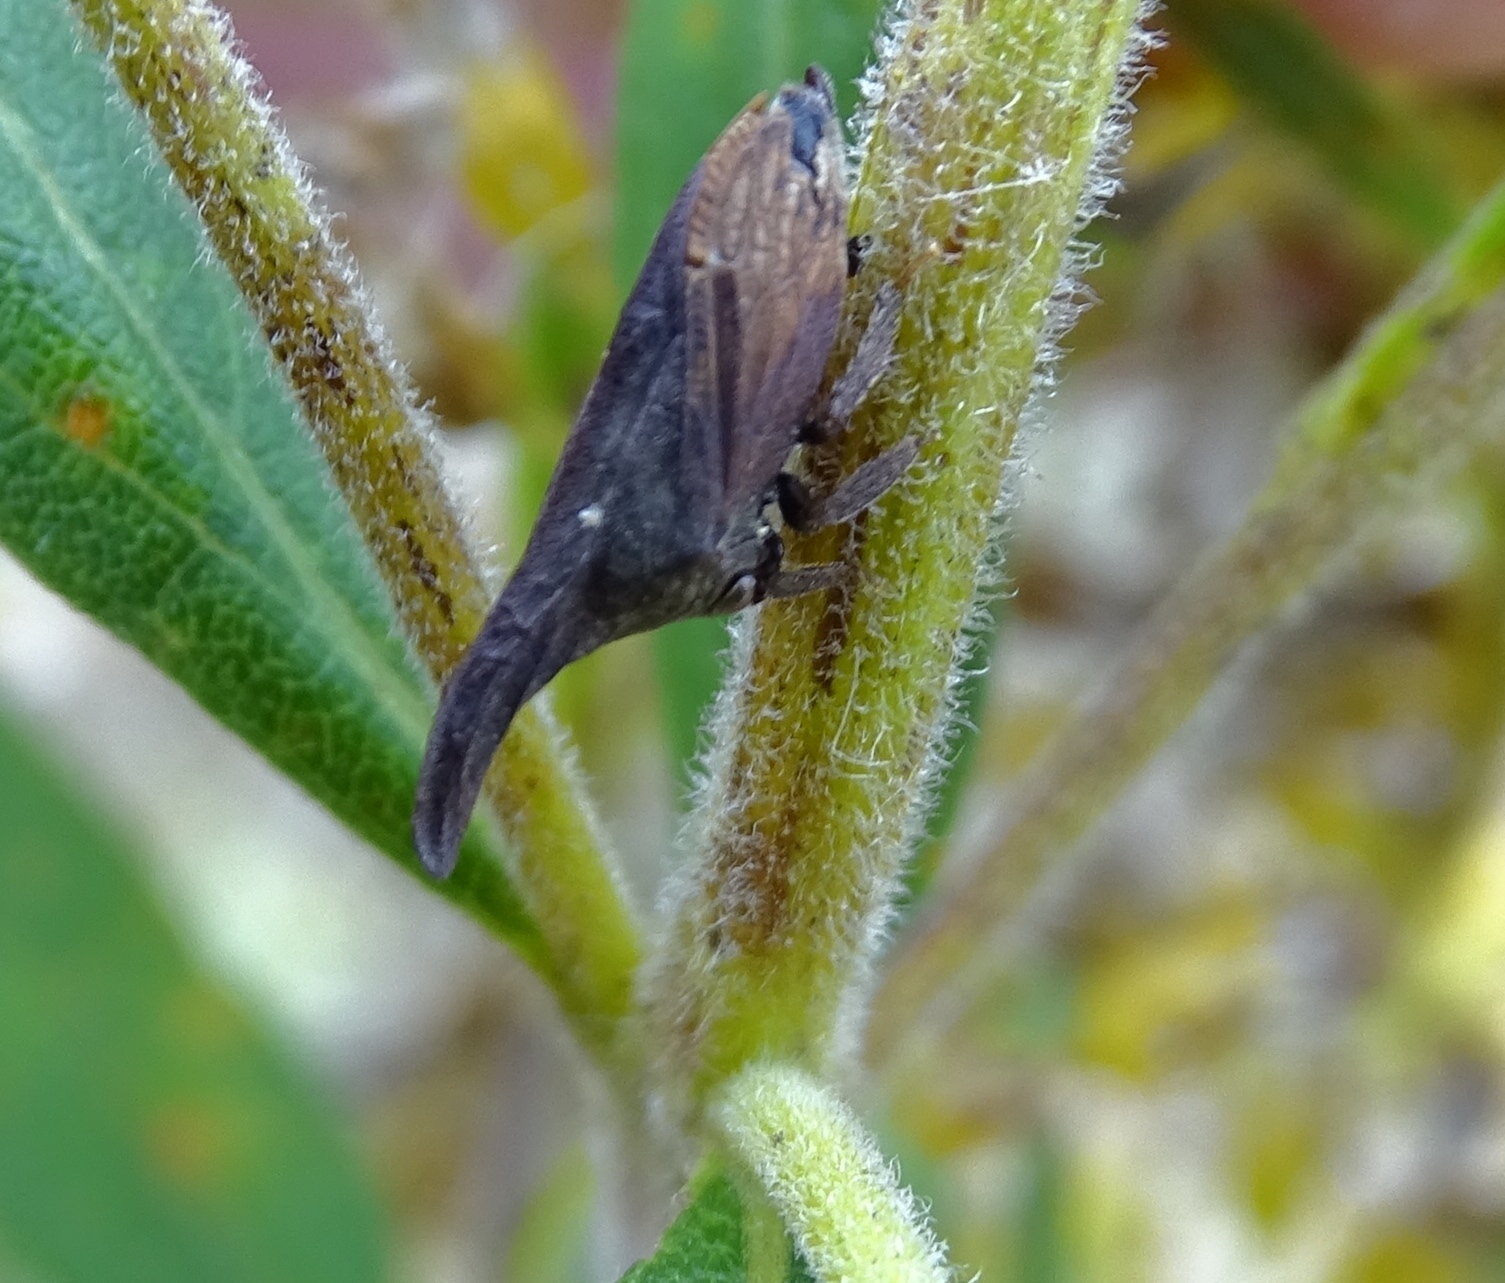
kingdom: Animalia
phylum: Arthropoda
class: Insecta
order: Hemiptera
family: Membracidae
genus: Enchenopa
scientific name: Enchenopa latipes
